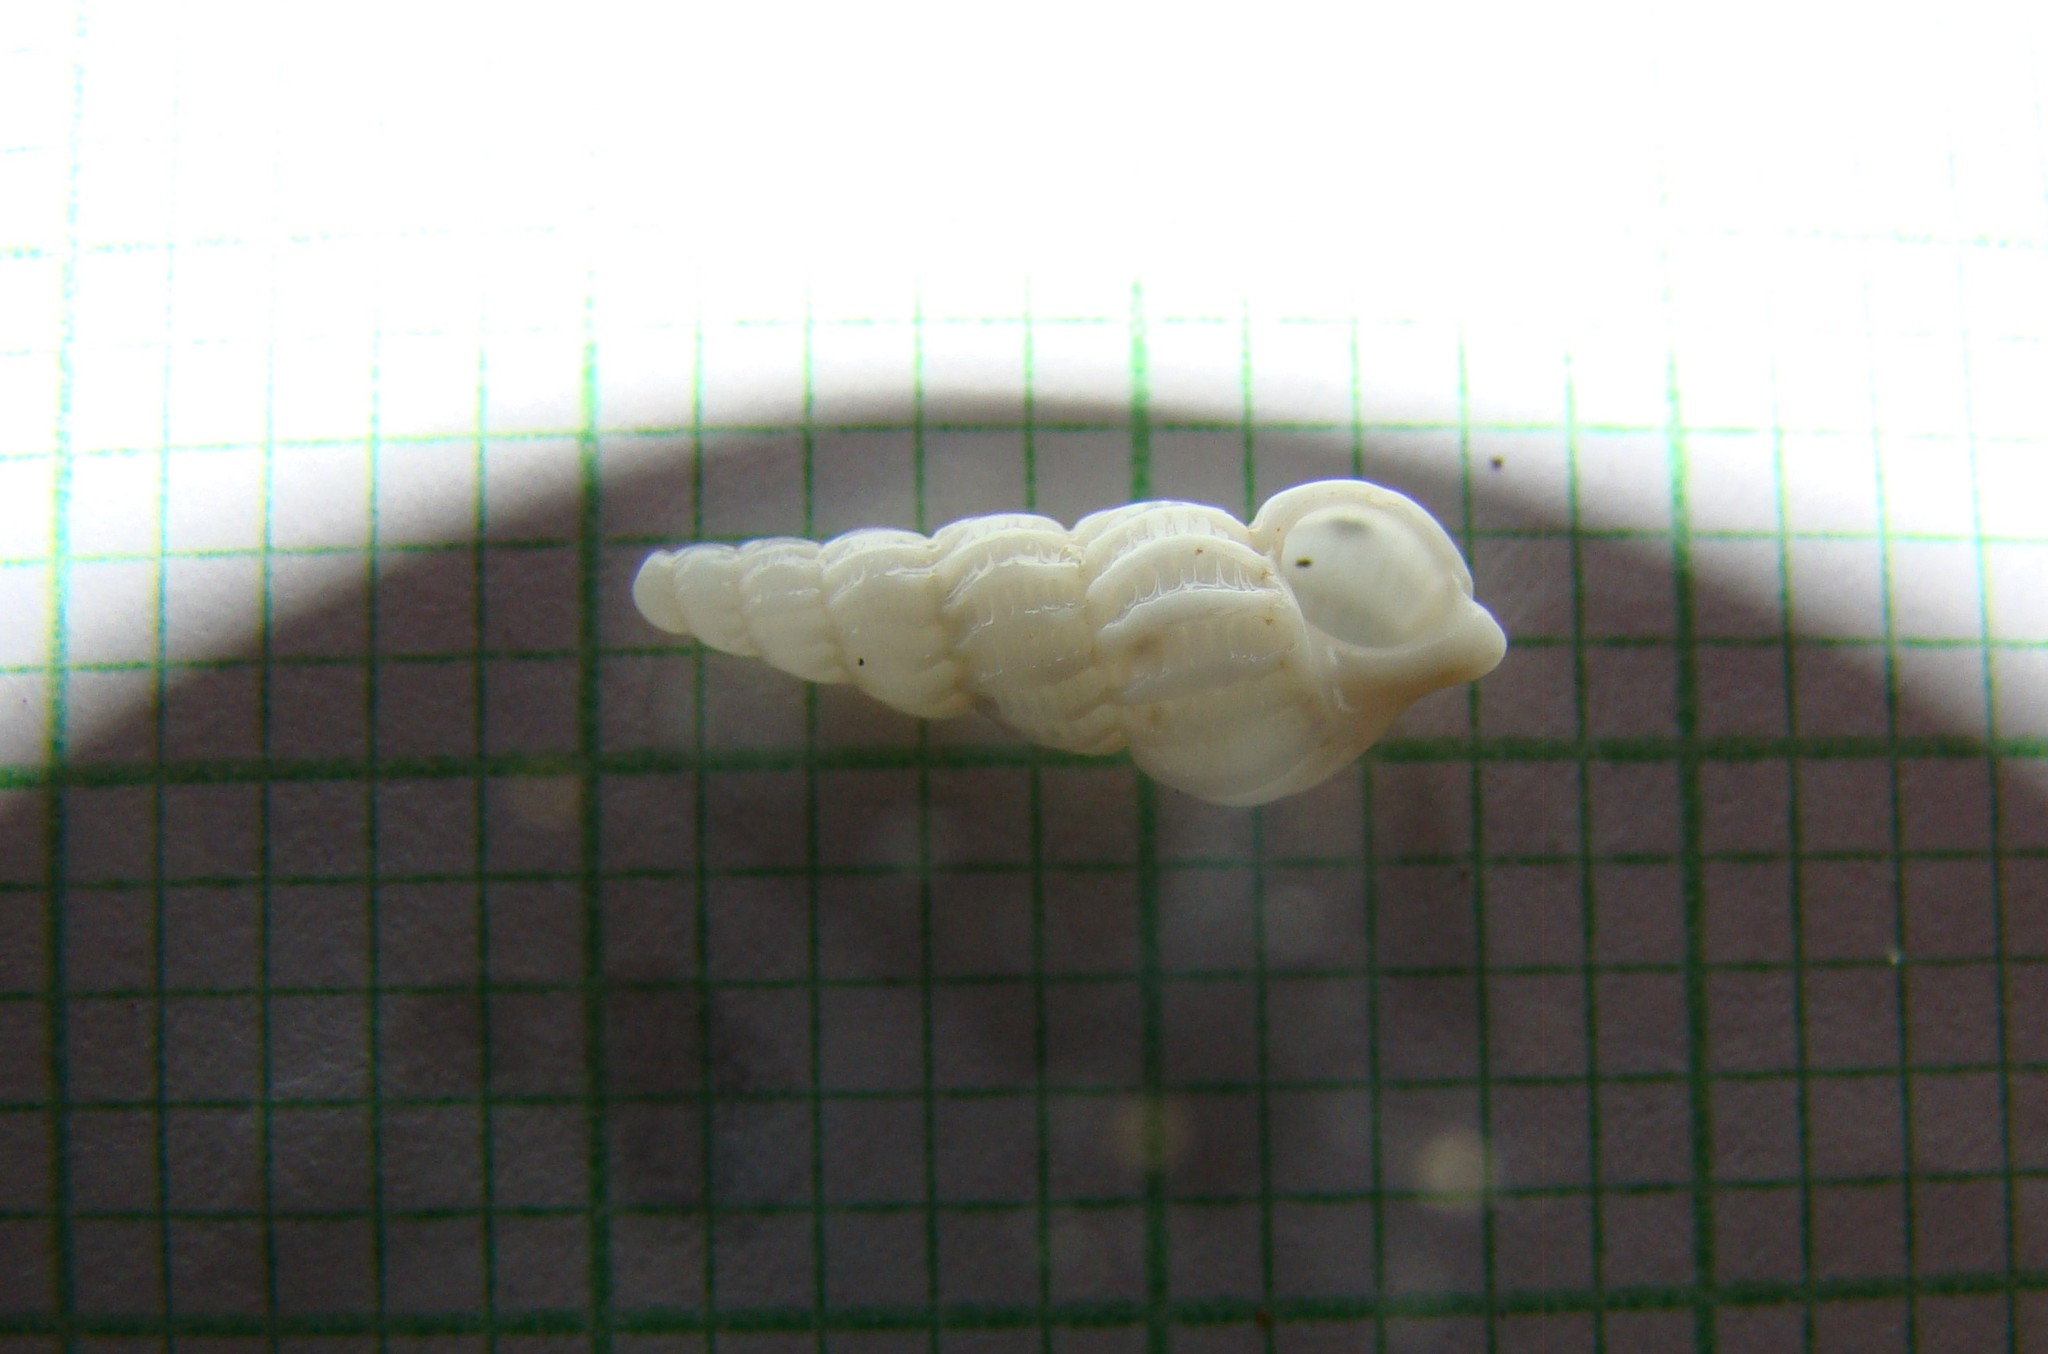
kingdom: Animalia
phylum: Mollusca
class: Gastropoda
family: Epitoniidae
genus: Cirsotrema
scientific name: Cirsotrema zelebori
